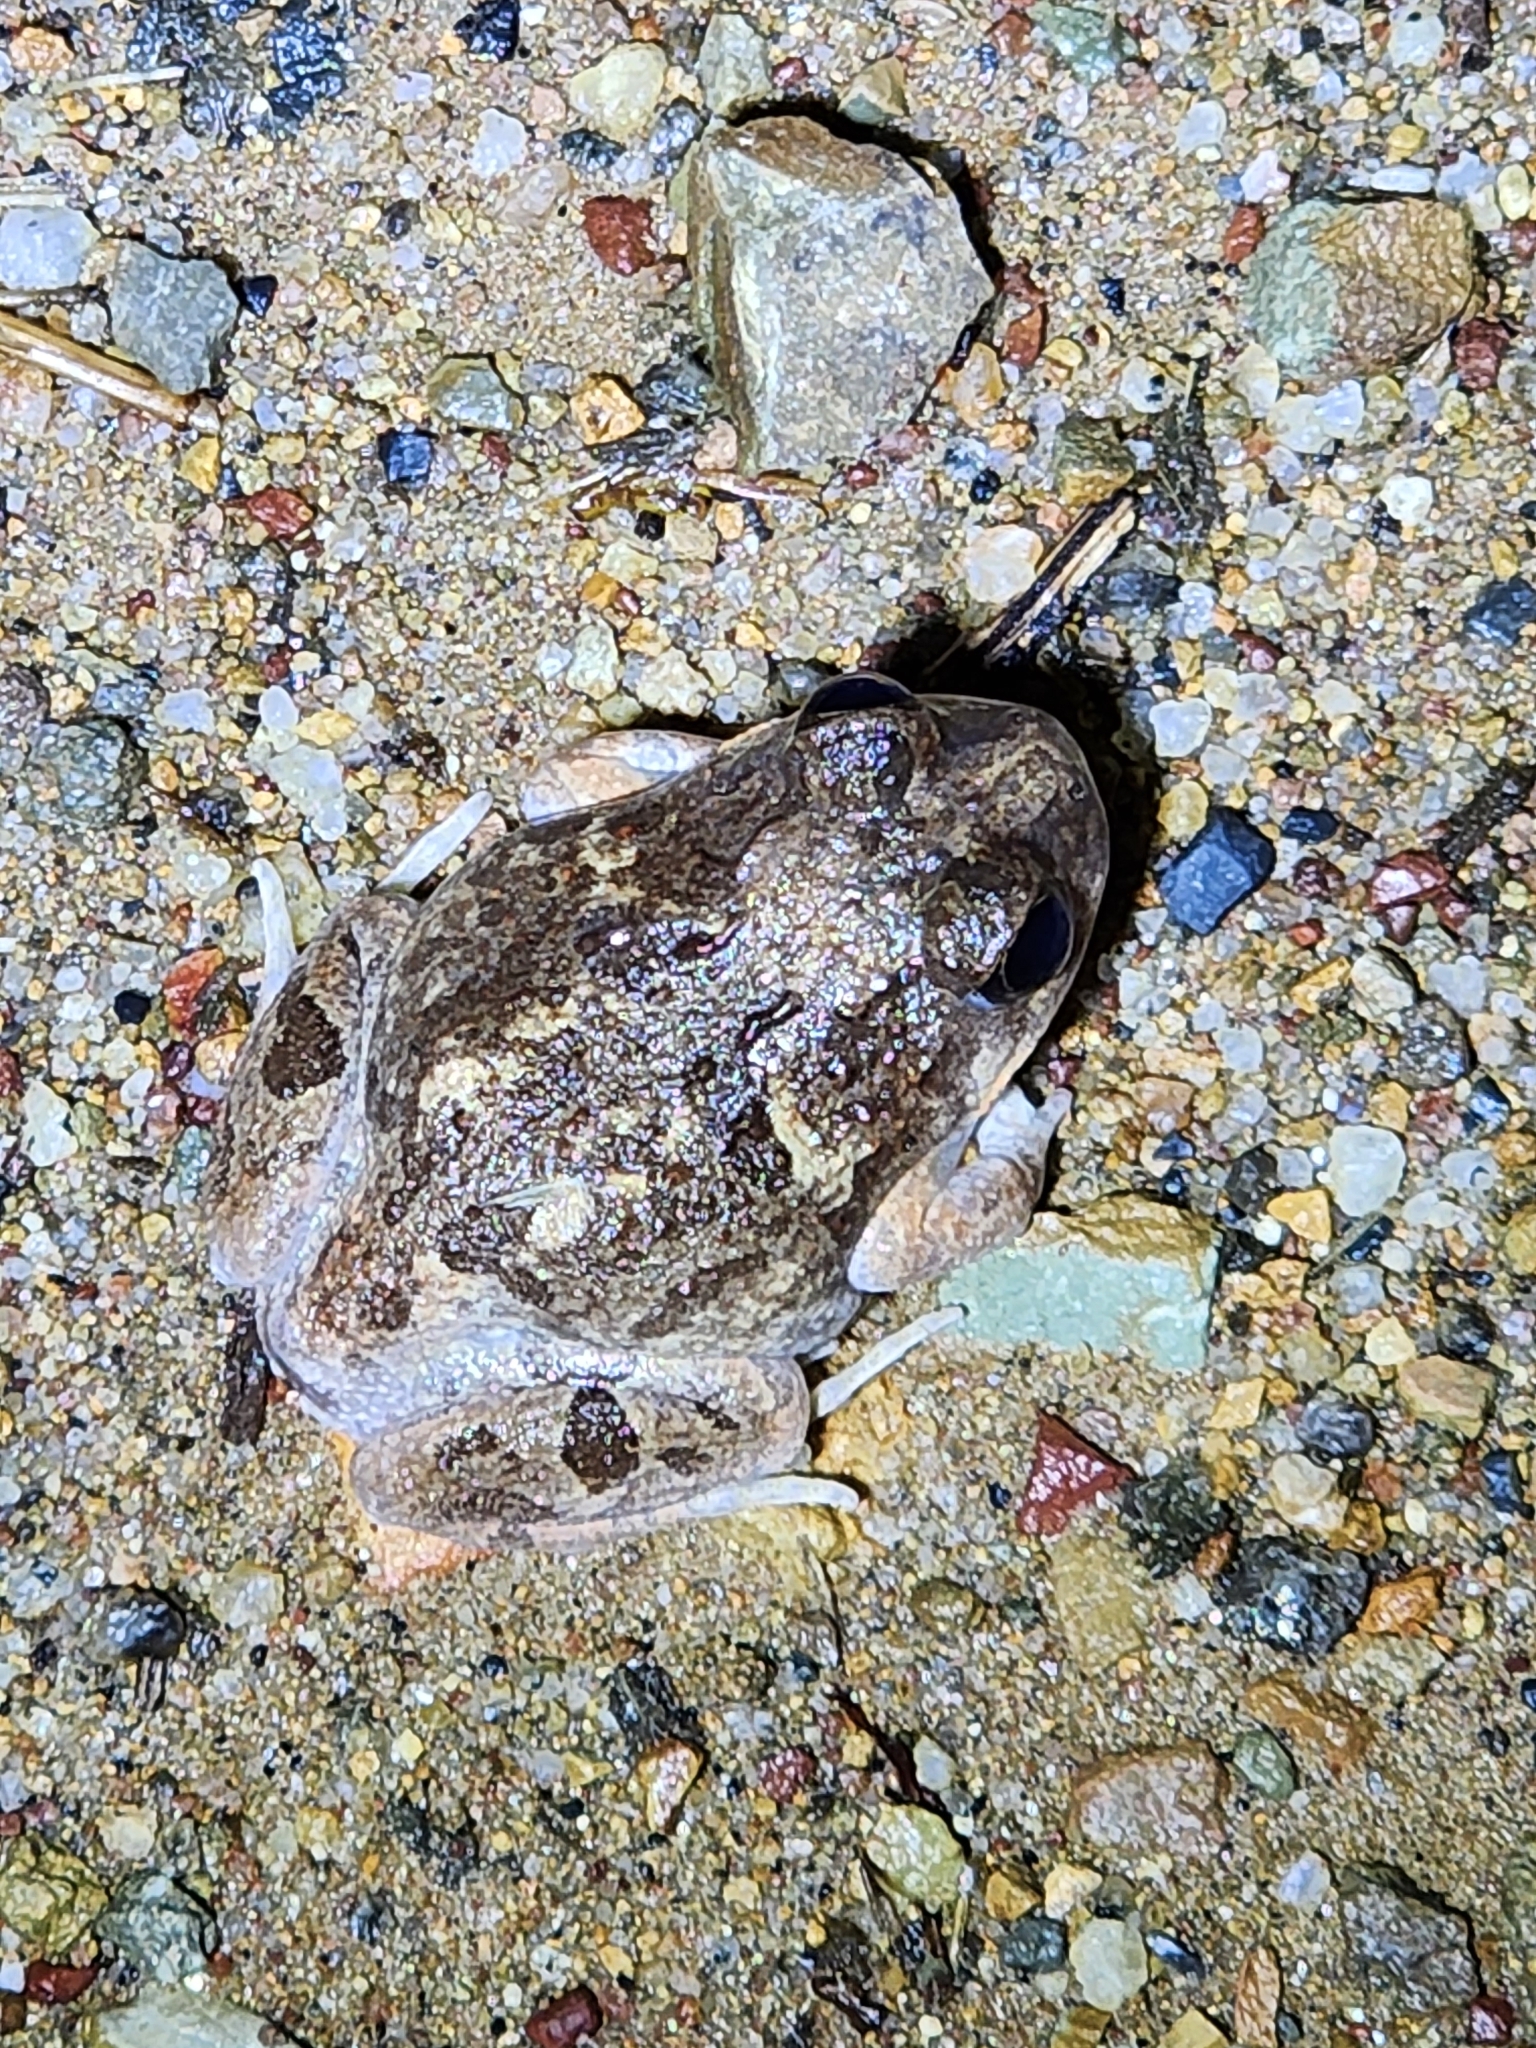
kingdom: Animalia
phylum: Chordata
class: Amphibia
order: Anura
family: Limnodynastidae
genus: Platyplectrum
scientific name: Platyplectrum ornatum
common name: Ornate burrowing frog
